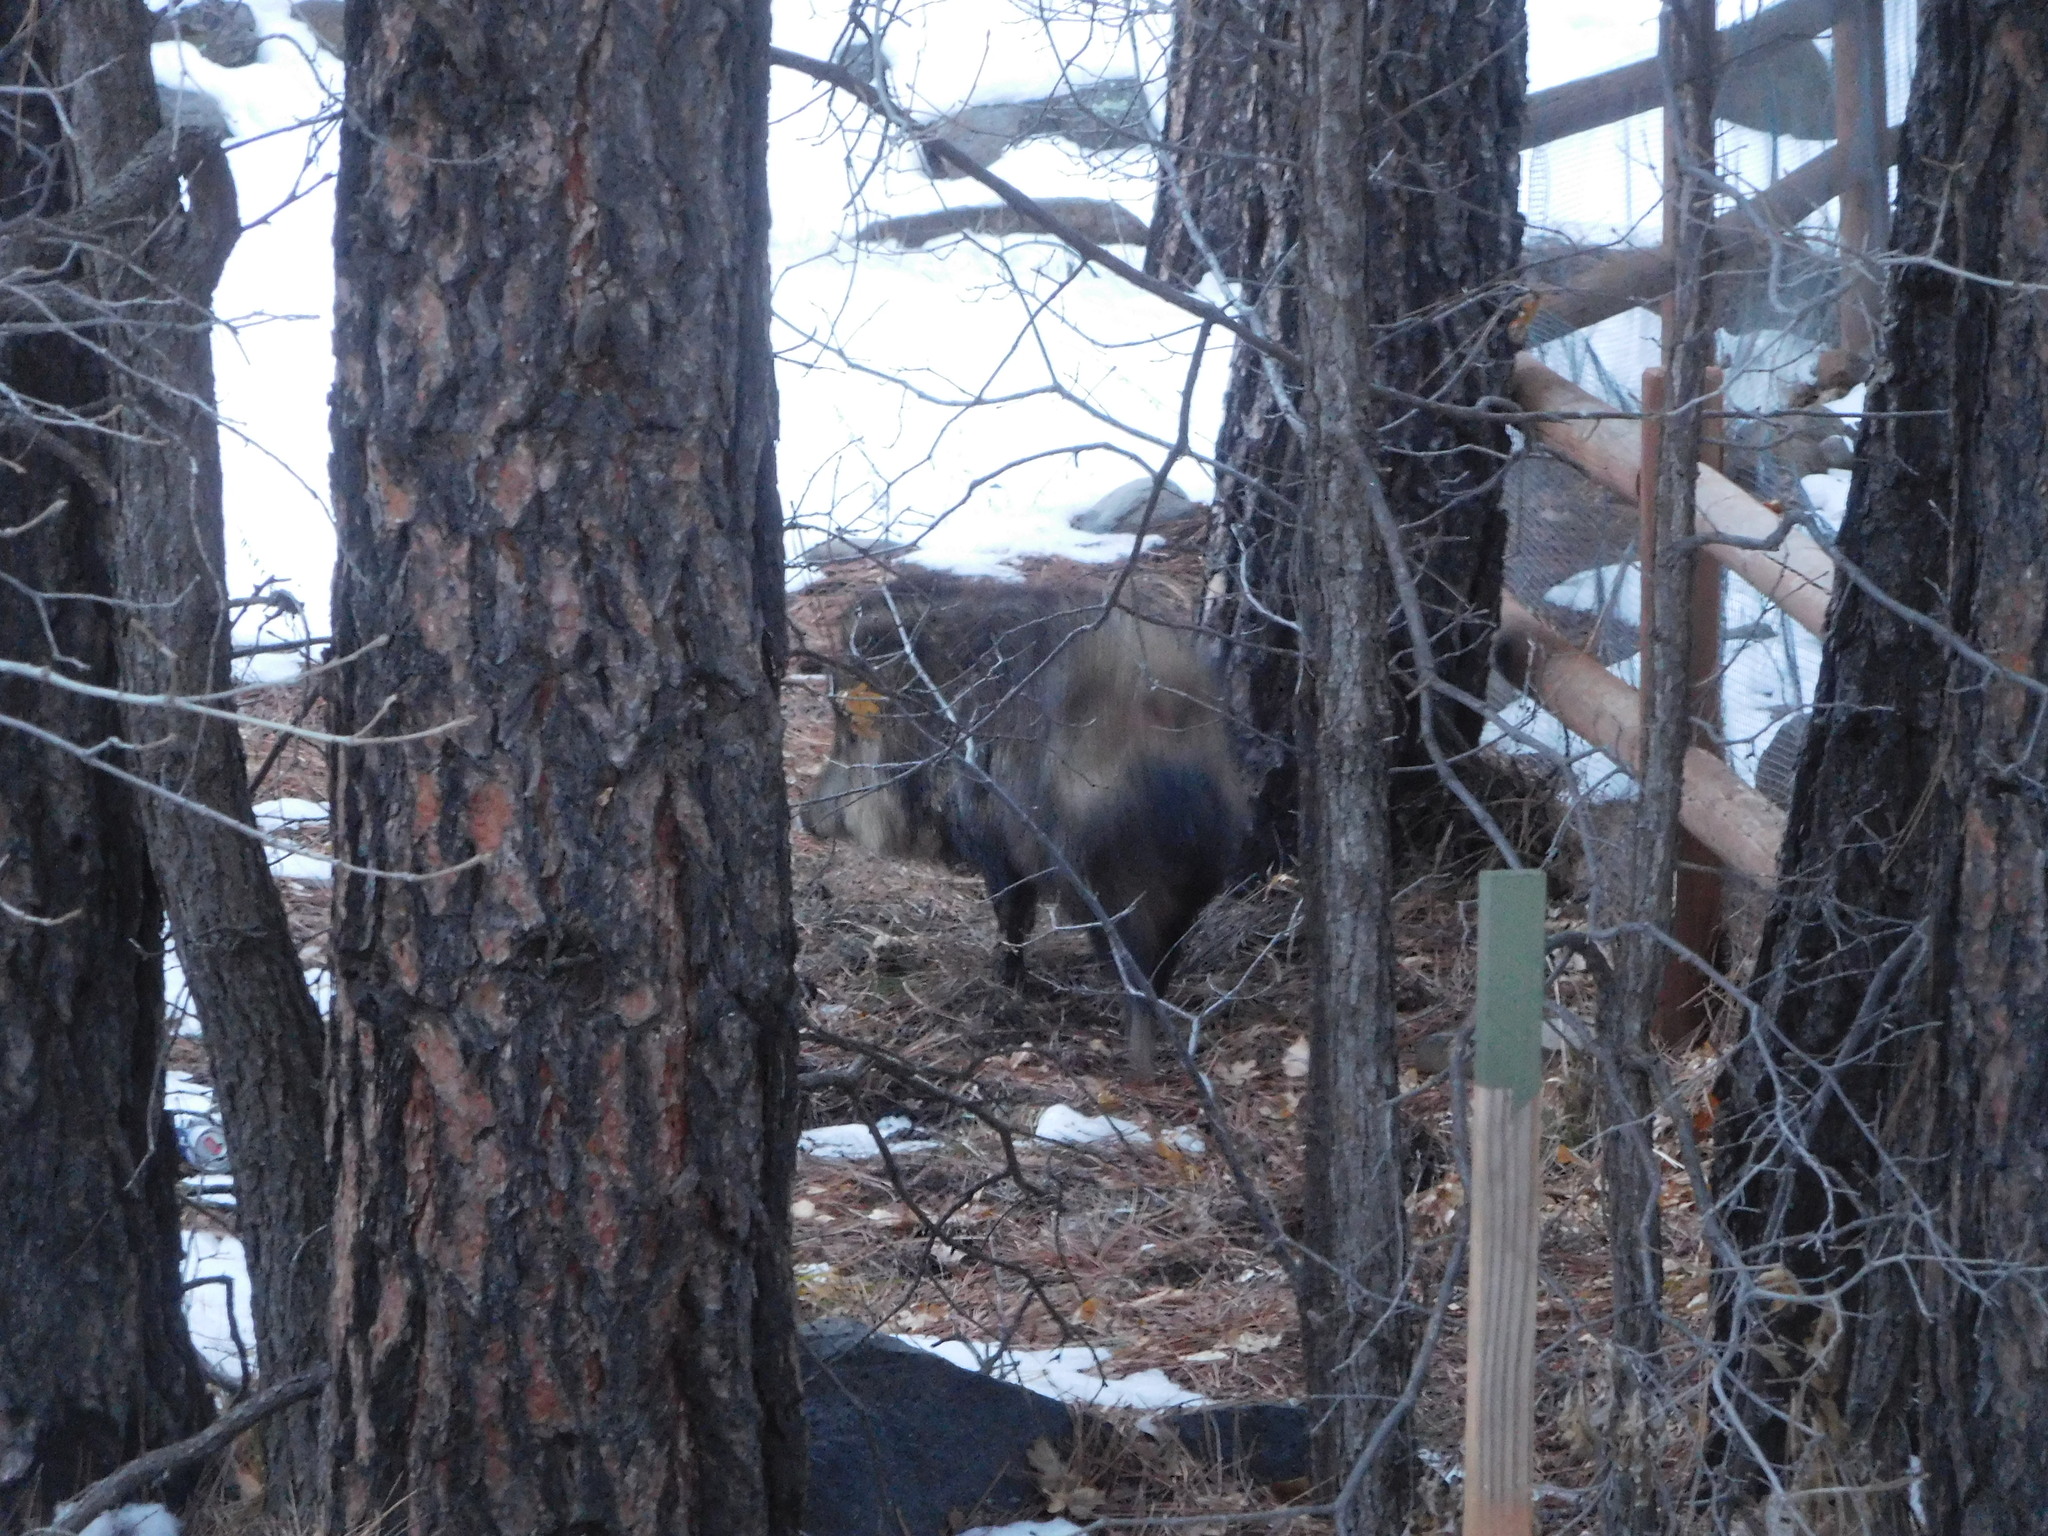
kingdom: Animalia
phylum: Chordata
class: Mammalia
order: Artiodactyla
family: Tayassuidae
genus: Pecari
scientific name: Pecari tajacu
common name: Collared peccary
